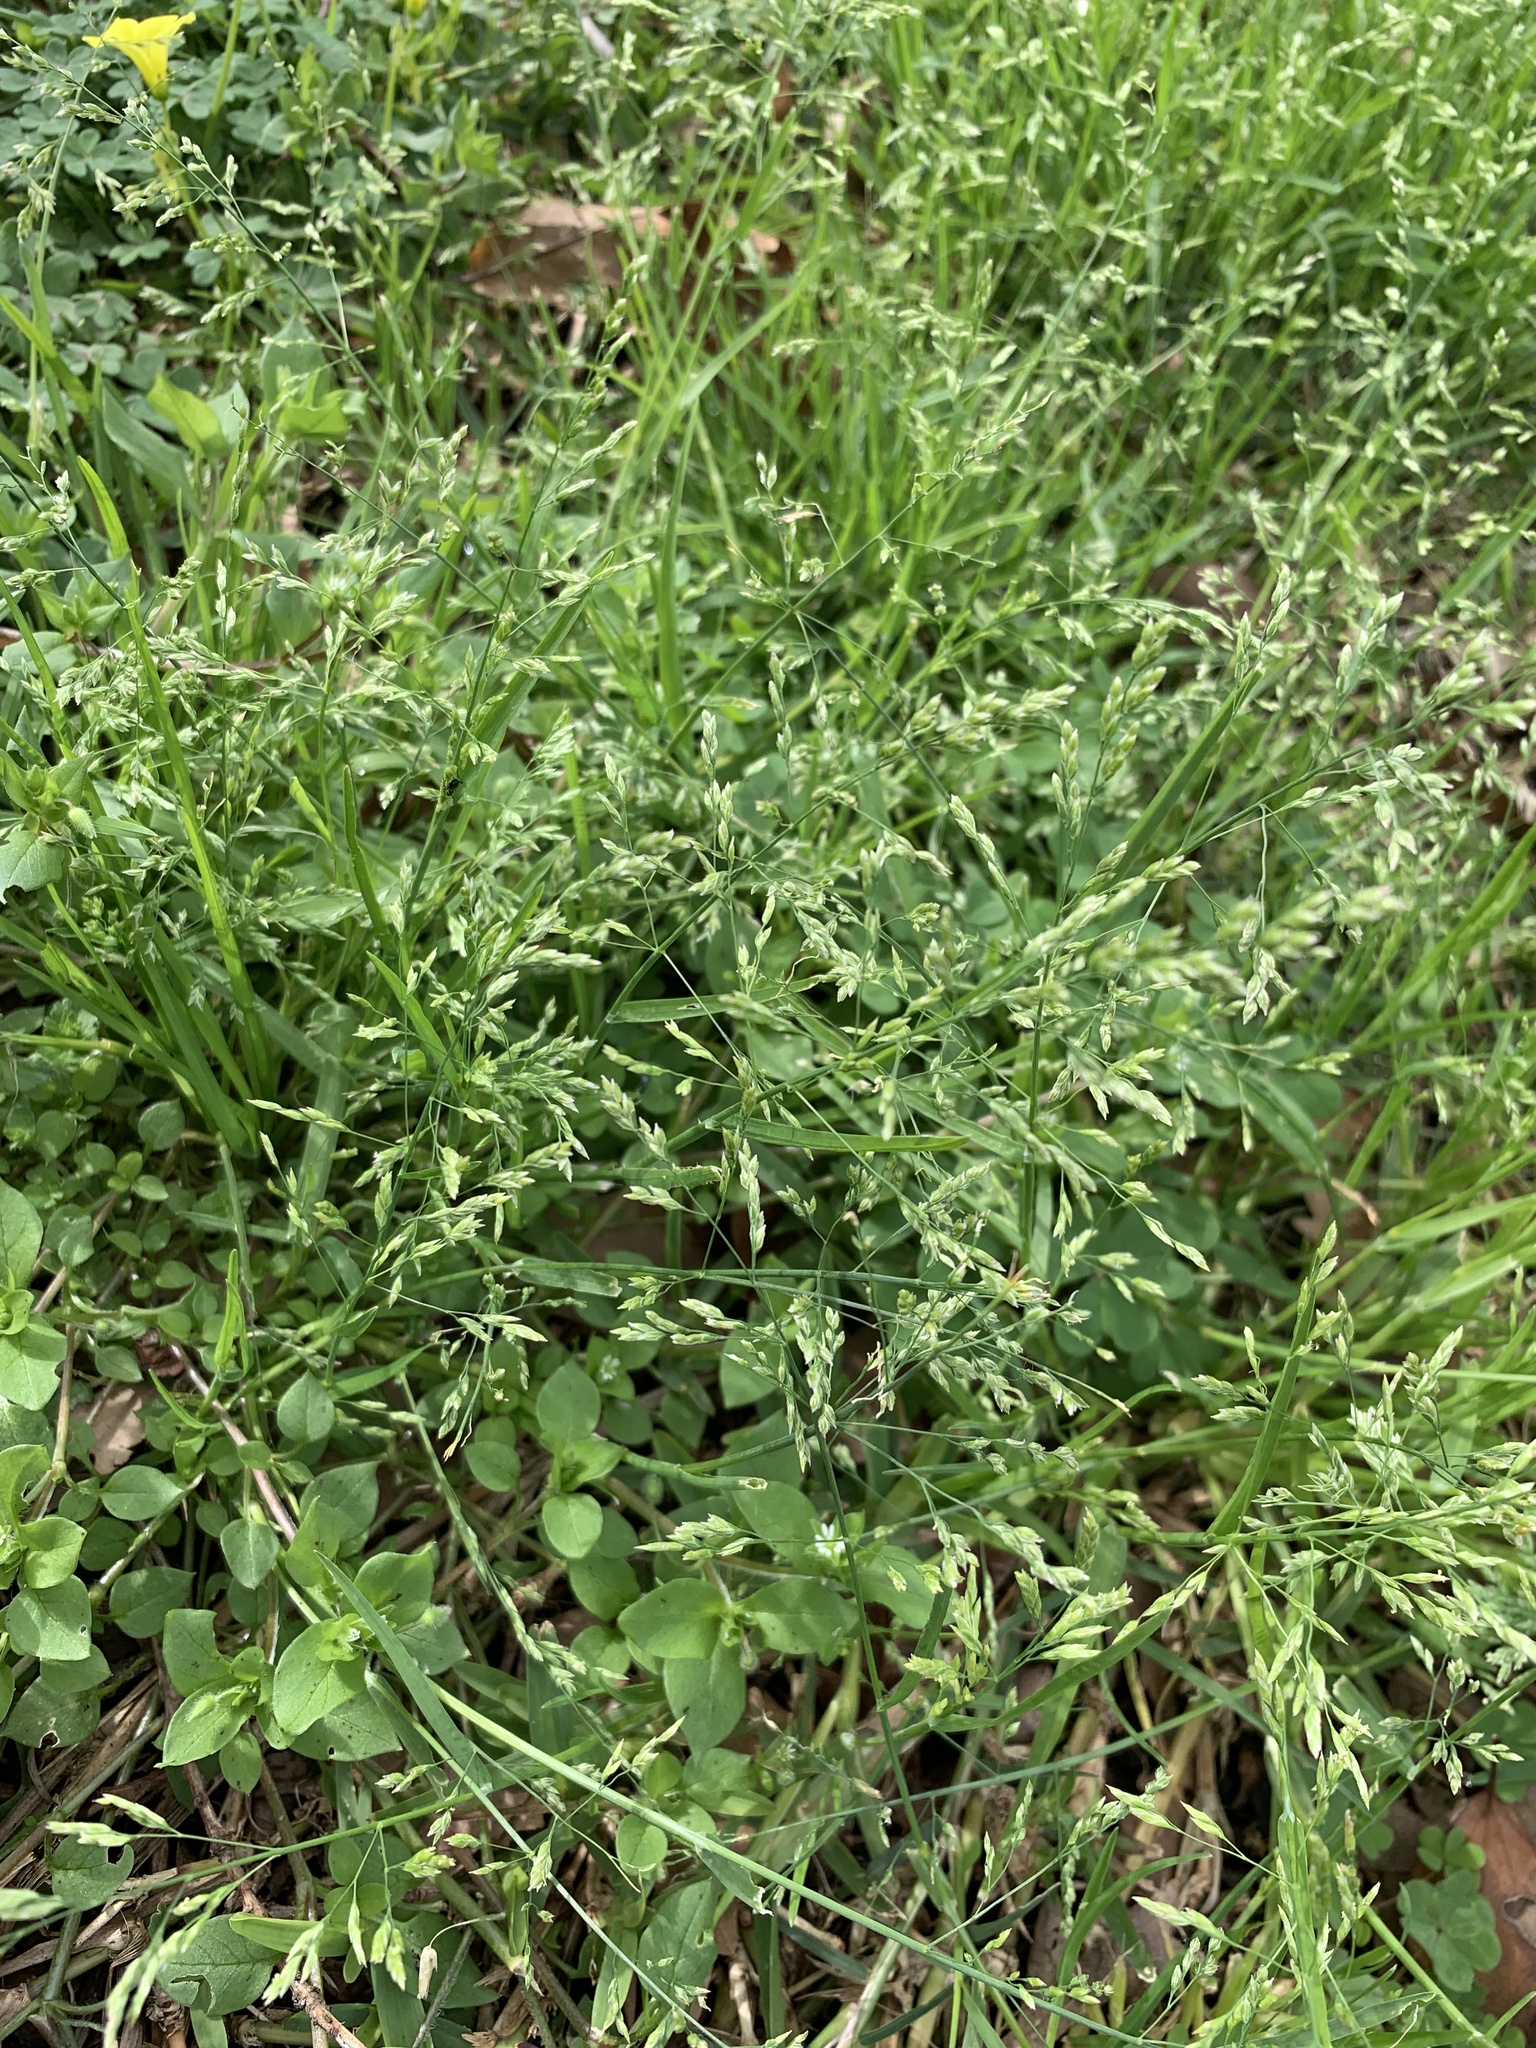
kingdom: Plantae
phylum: Tracheophyta
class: Liliopsida
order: Poales
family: Poaceae
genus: Poa
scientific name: Poa annua
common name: Annual bluegrass
